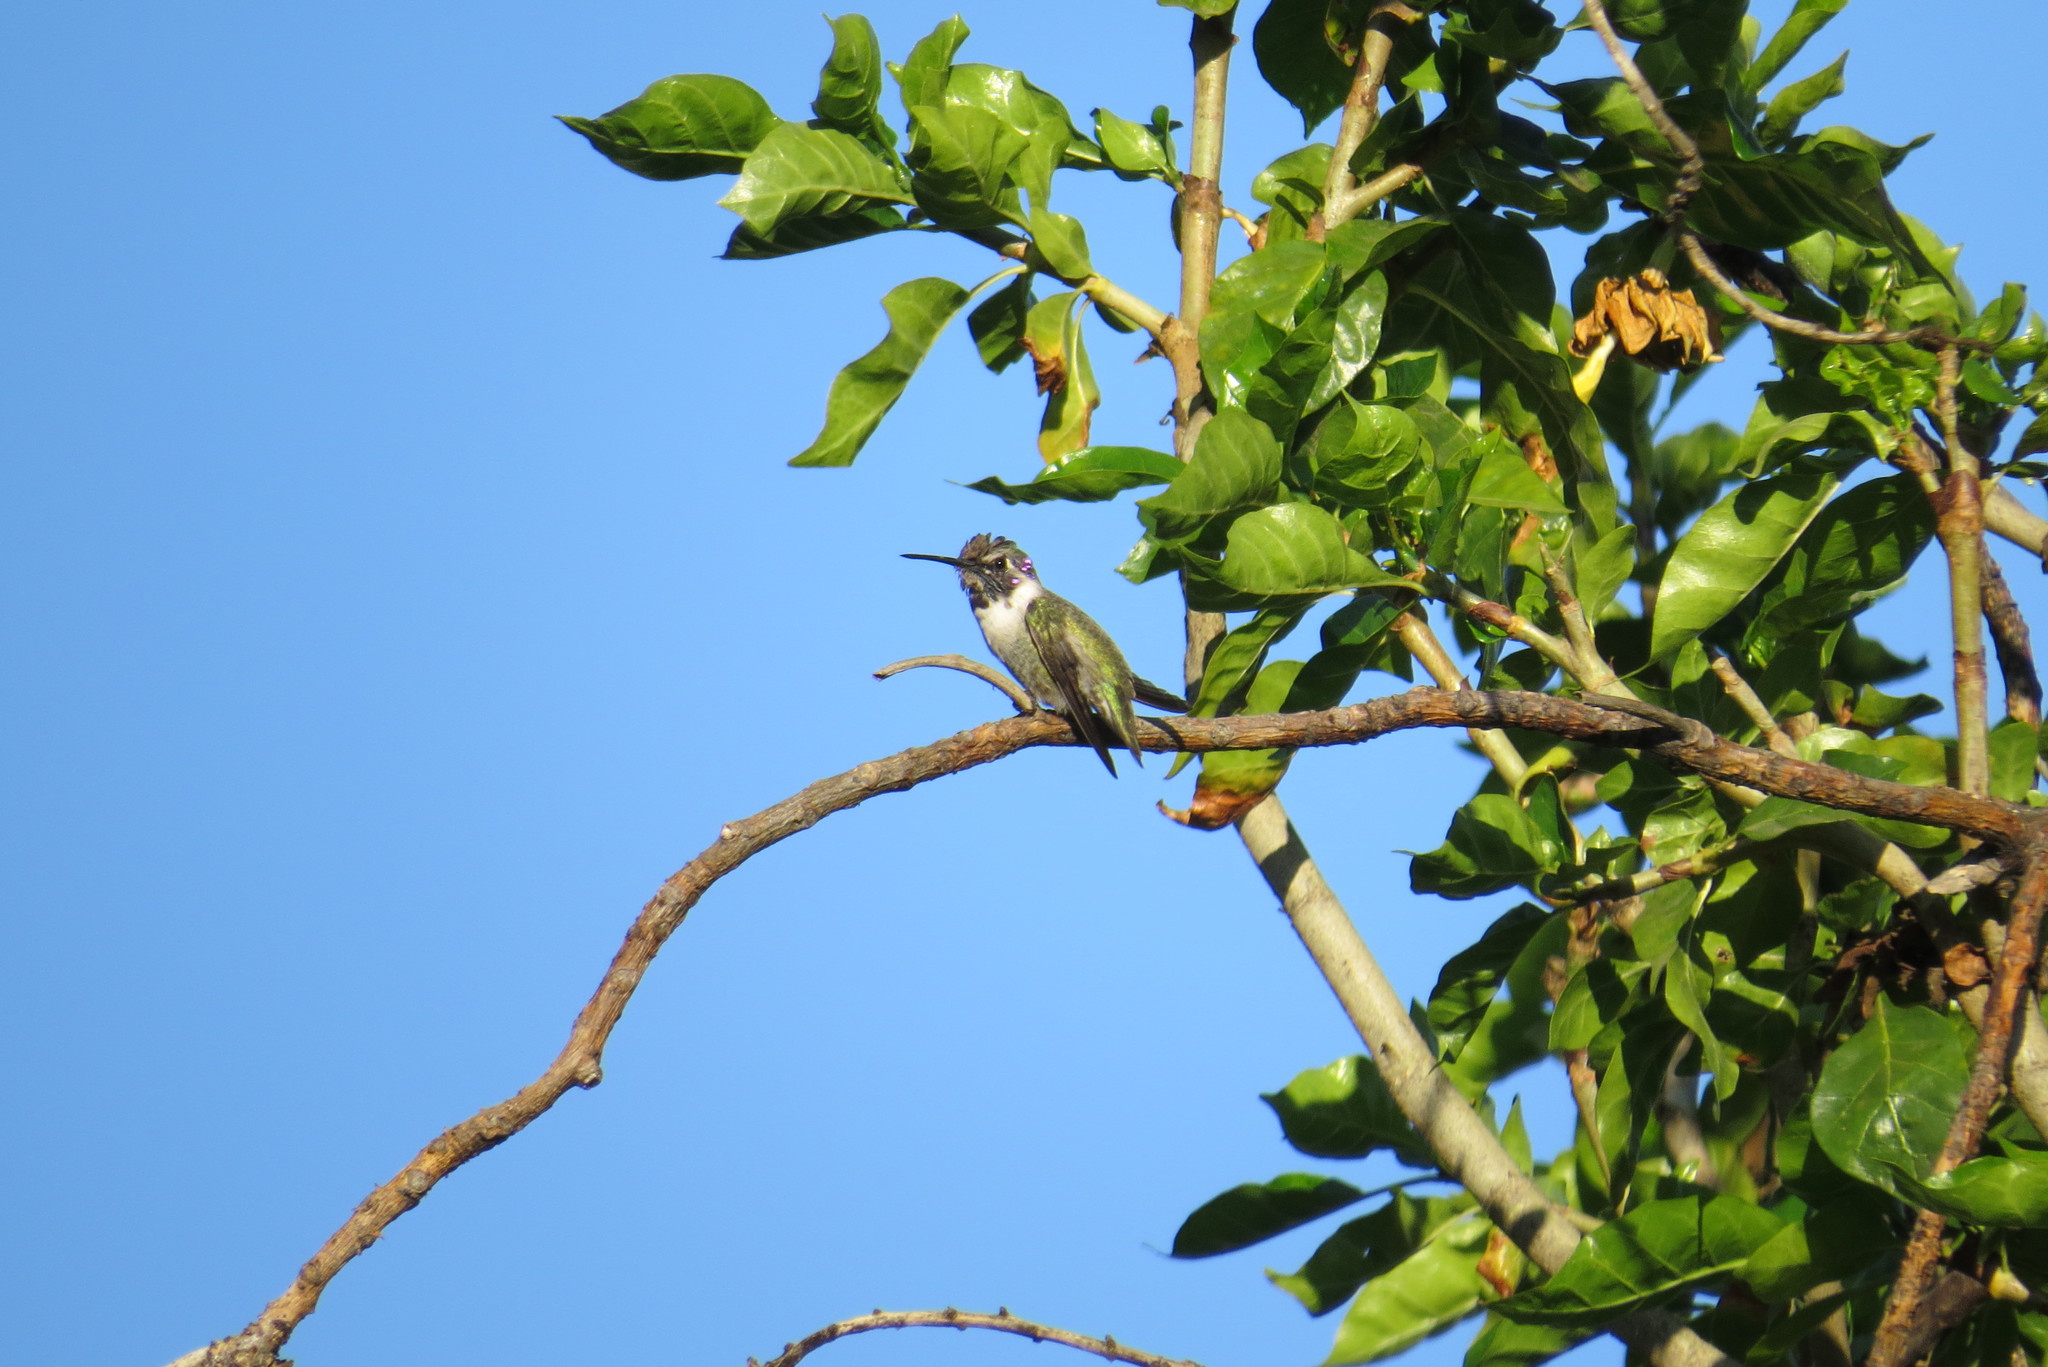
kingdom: Animalia
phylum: Chordata
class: Aves
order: Apodiformes
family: Trochilidae
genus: Calypte
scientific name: Calypte costae
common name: Costa's hummingbird
